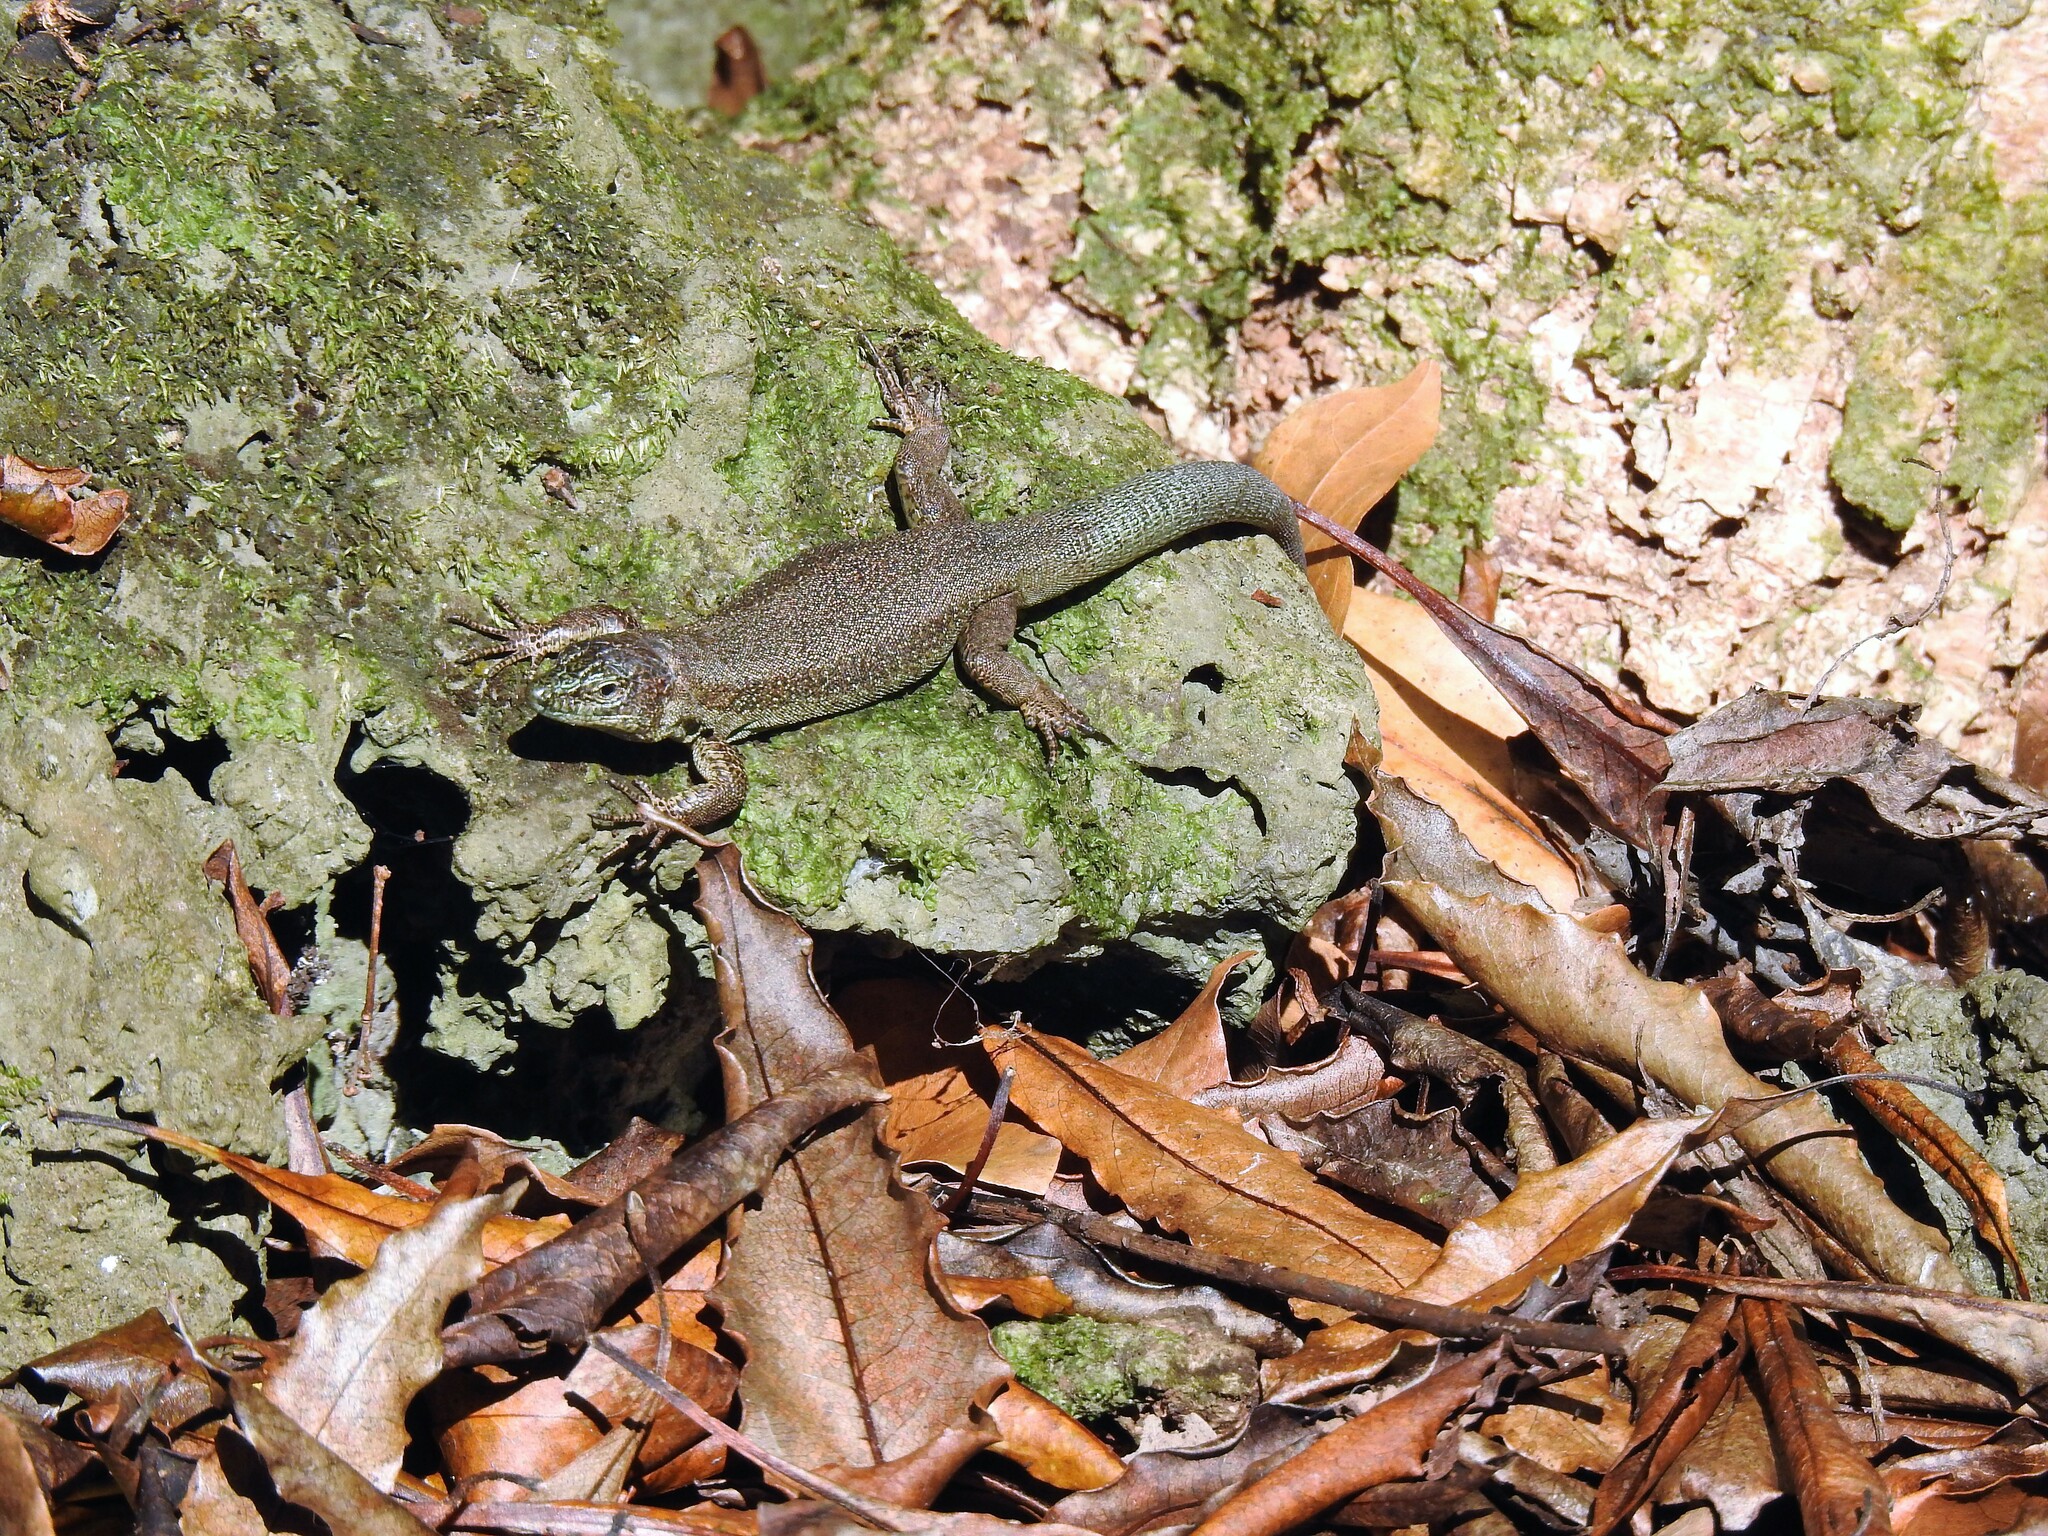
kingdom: Animalia
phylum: Chordata
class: Squamata
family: Lacertidae
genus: Teira
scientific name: Teira dugesii
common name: Madeira lizard
